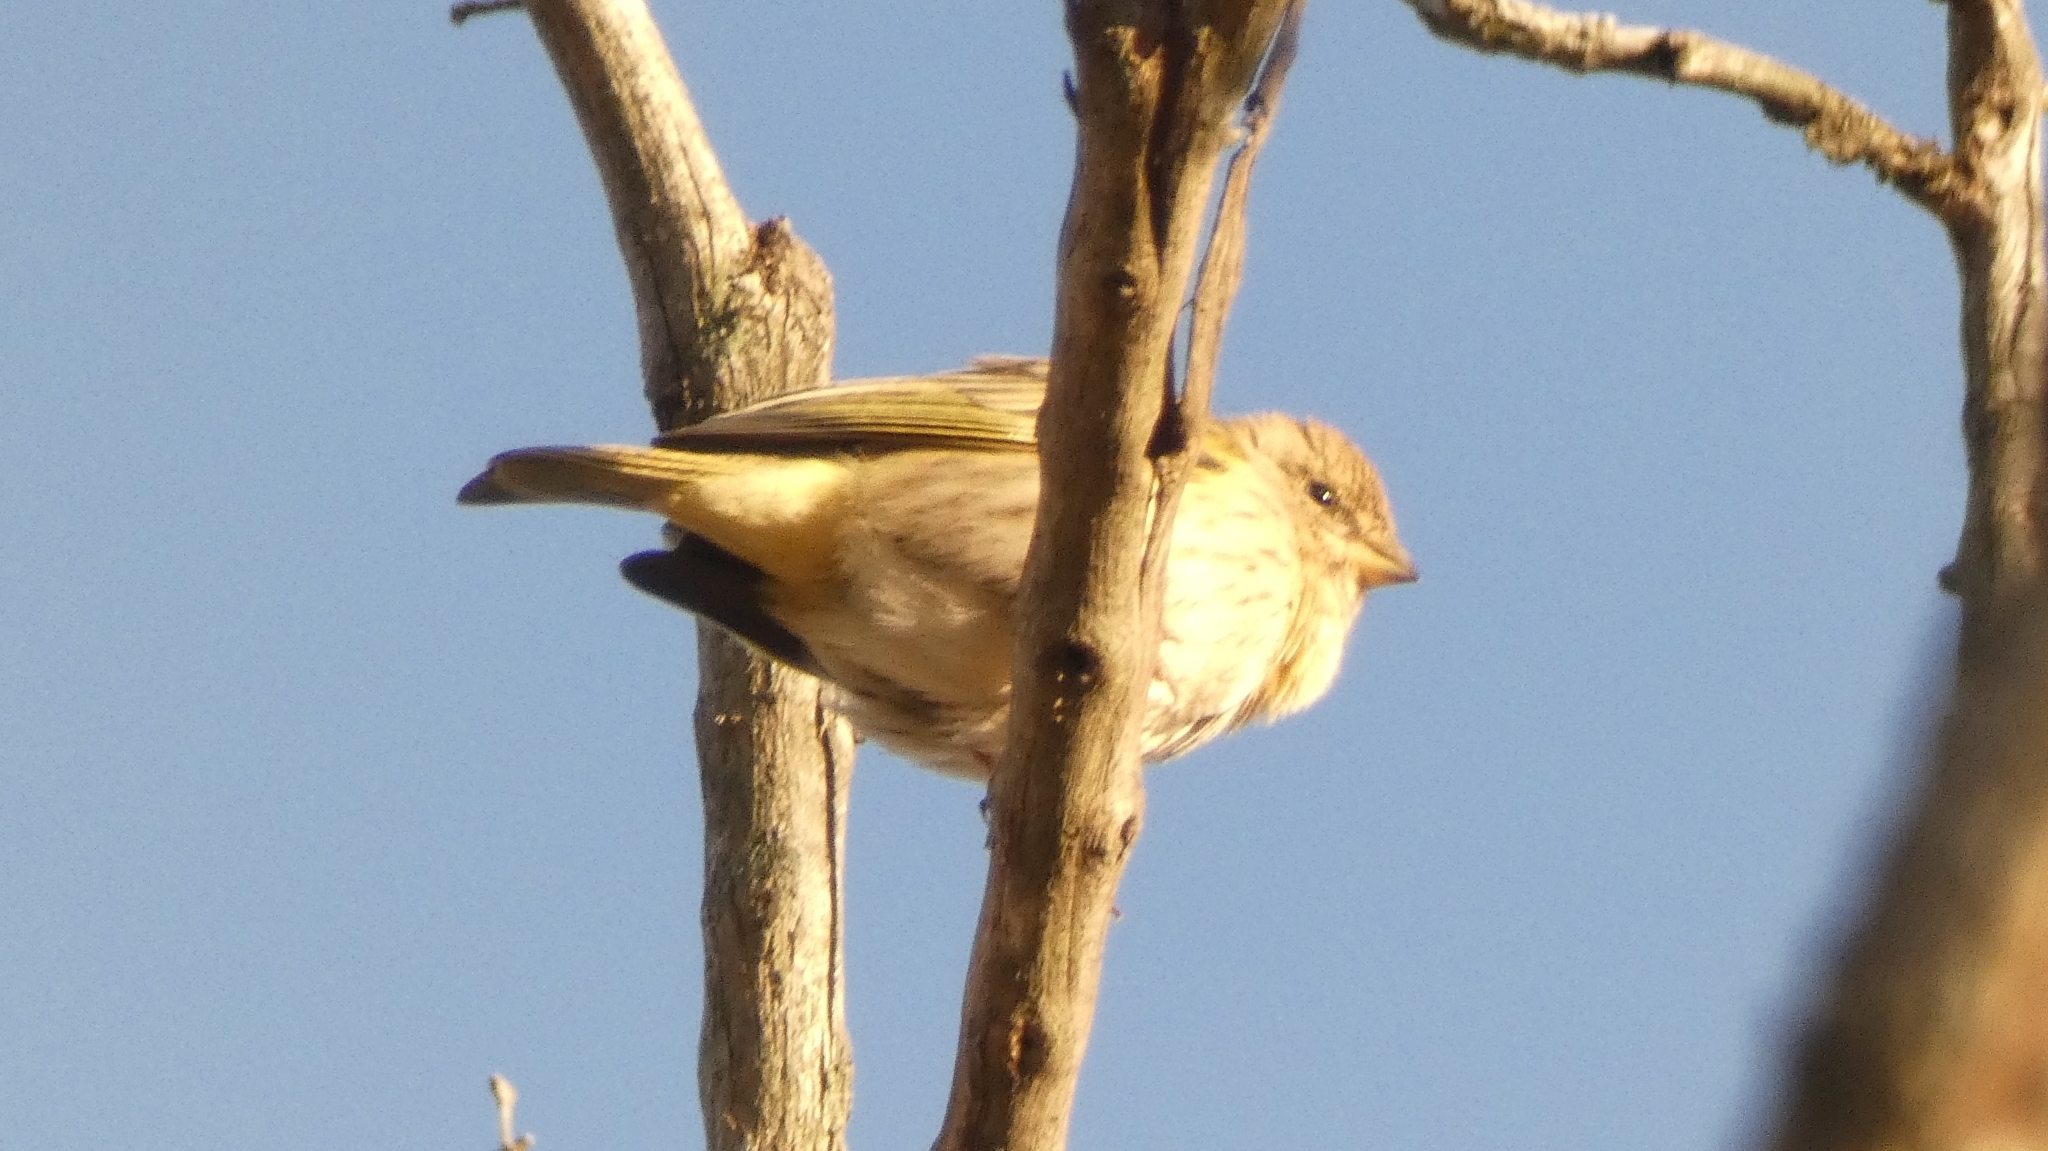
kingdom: Animalia
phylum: Chordata
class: Aves
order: Passeriformes
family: Thraupidae
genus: Sicalis
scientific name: Sicalis flaveola
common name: Saffron finch
